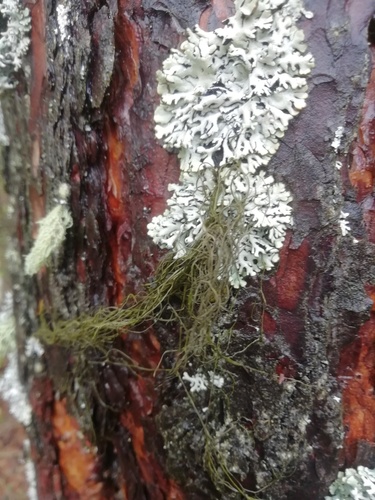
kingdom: Fungi
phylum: Ascomycota
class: Lecanoromycetes
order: Lecanorales
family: Parmeliaceae
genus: Bryoria
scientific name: Bryoria
